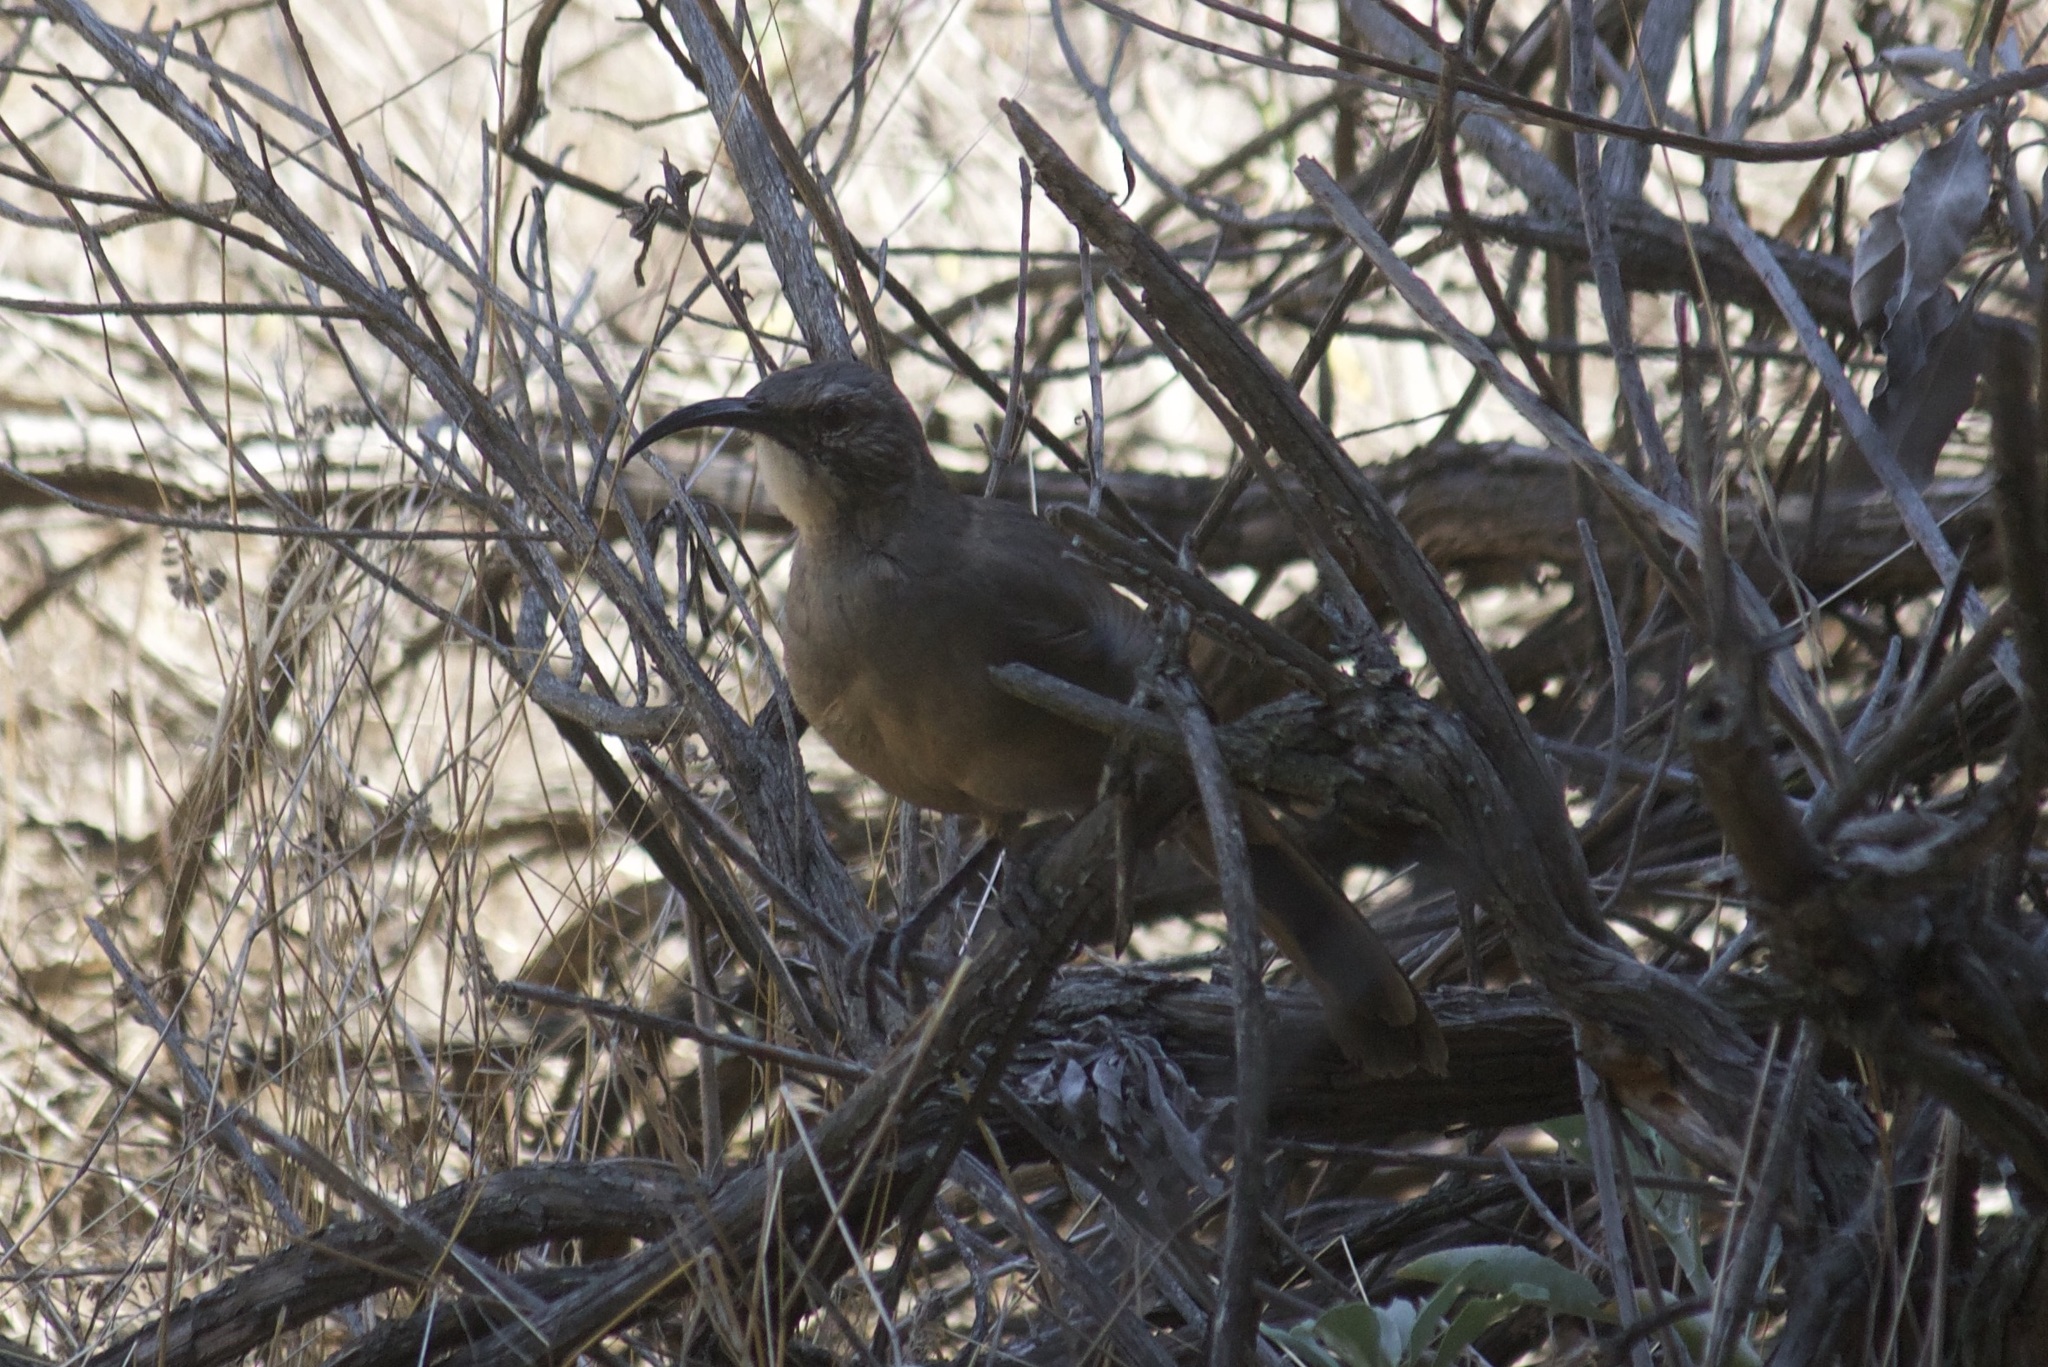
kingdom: Animalia
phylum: Chordata
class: Aves
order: Passeriformes
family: Mimidae
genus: Toxostoma
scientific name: Toxostoma redivivum
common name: California thrasher
